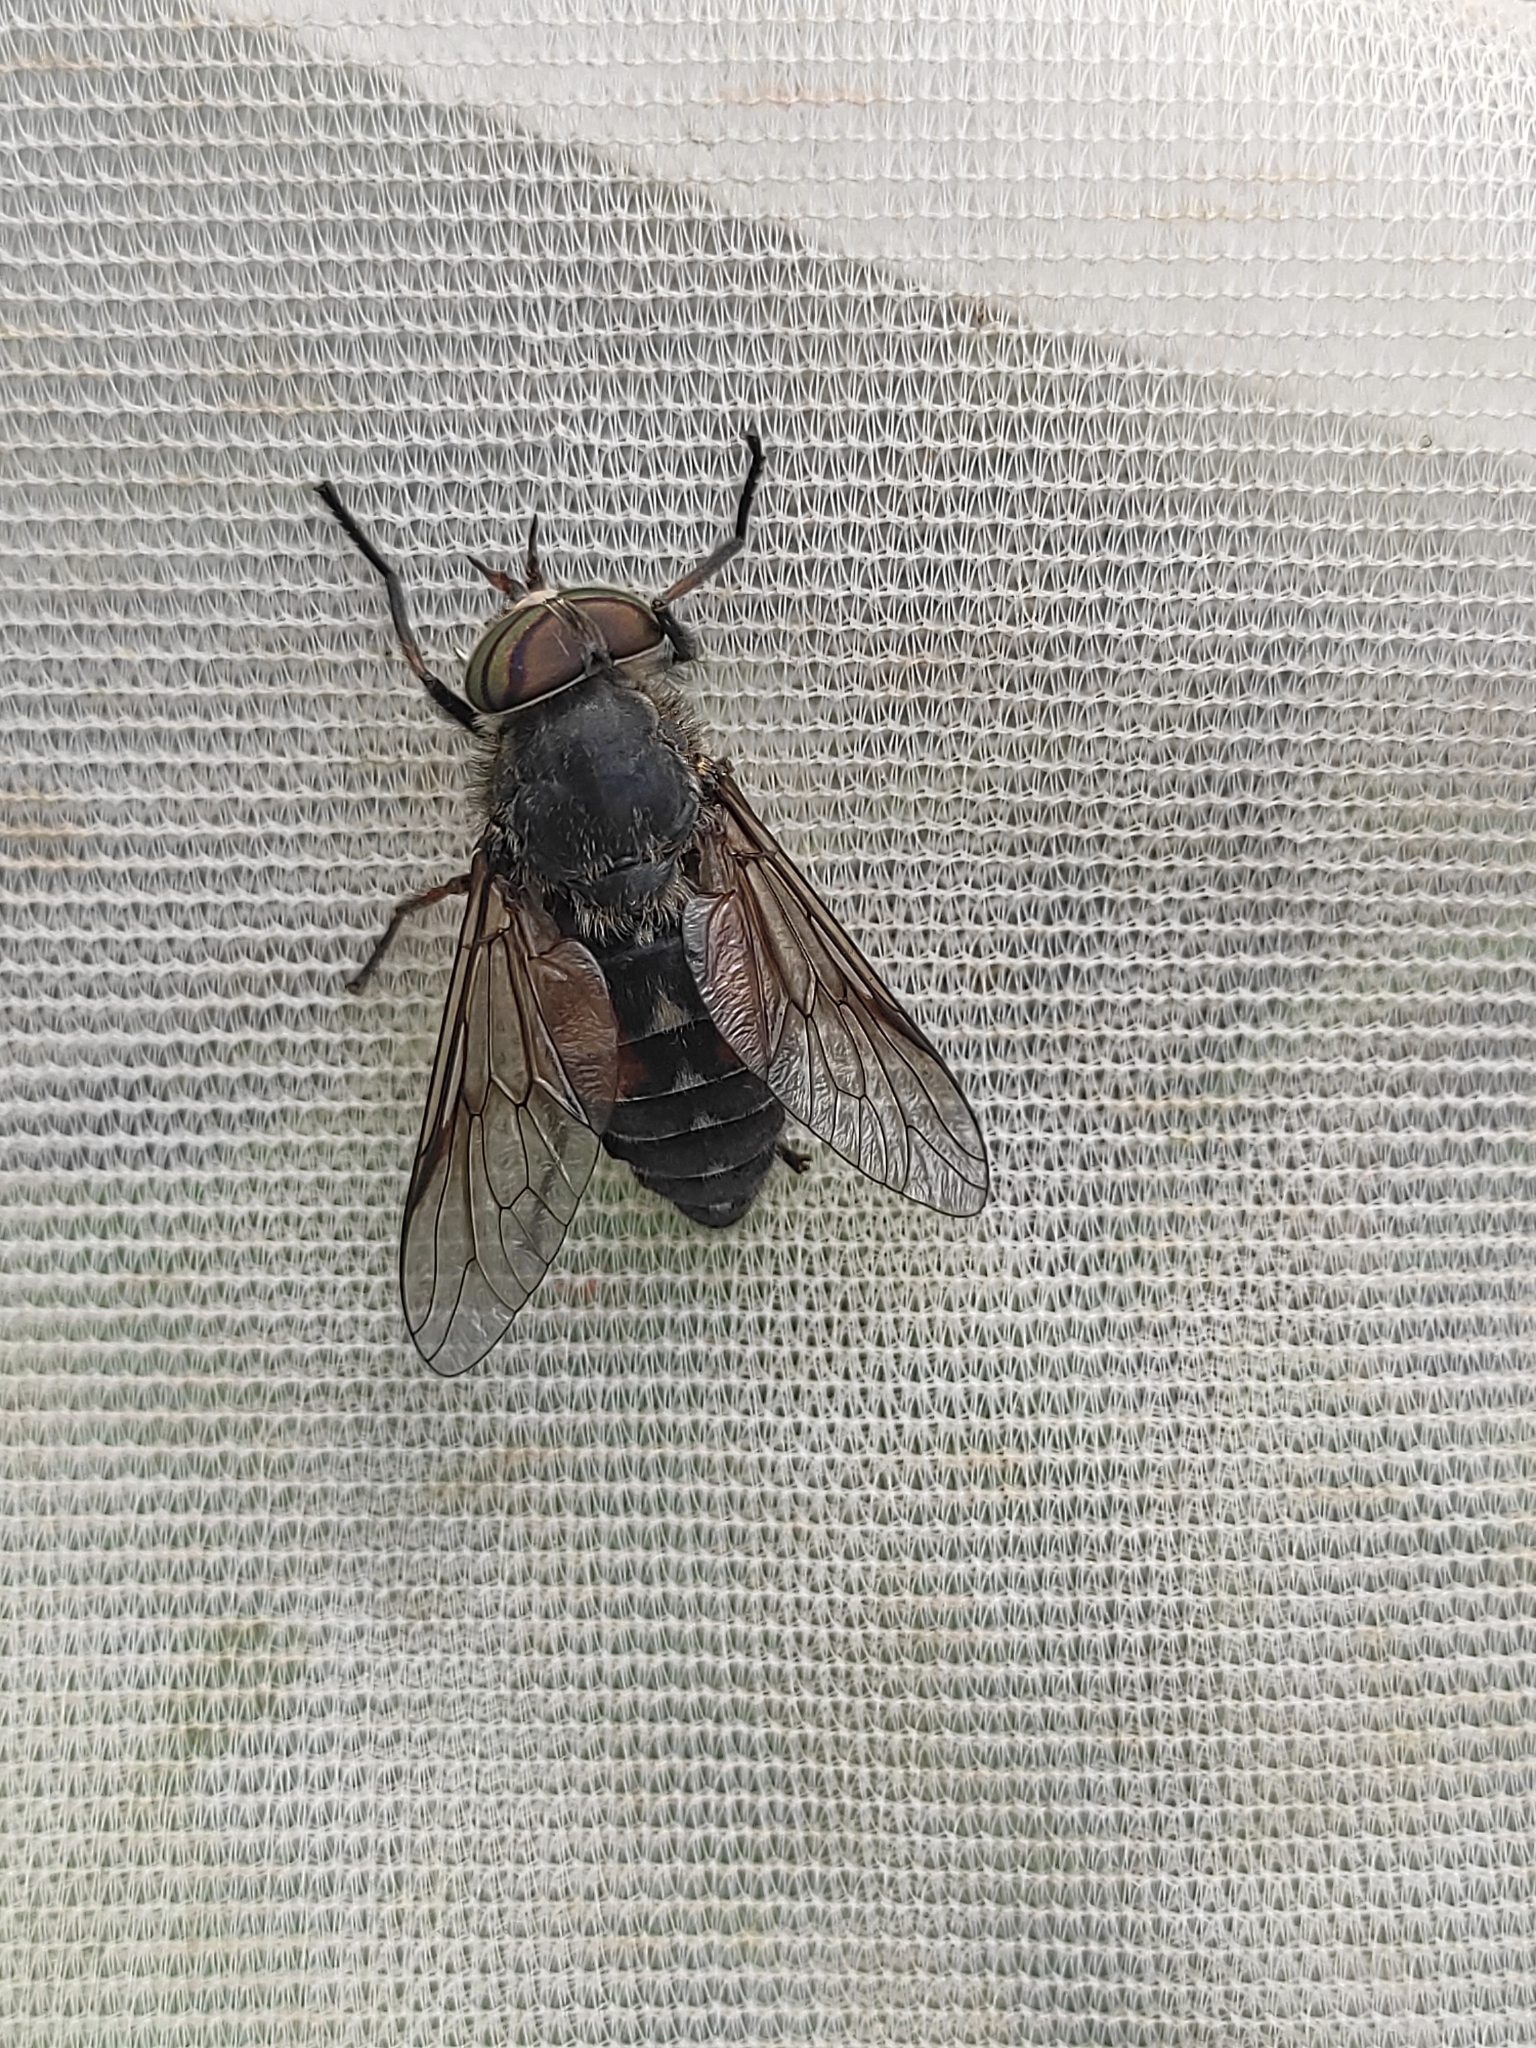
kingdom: Animalia
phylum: Arthropoda
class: Insecta
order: Diptera
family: Tabanidae
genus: Hybomitra
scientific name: Hybomitra bimaculata
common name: Hairy-legged horsefly
